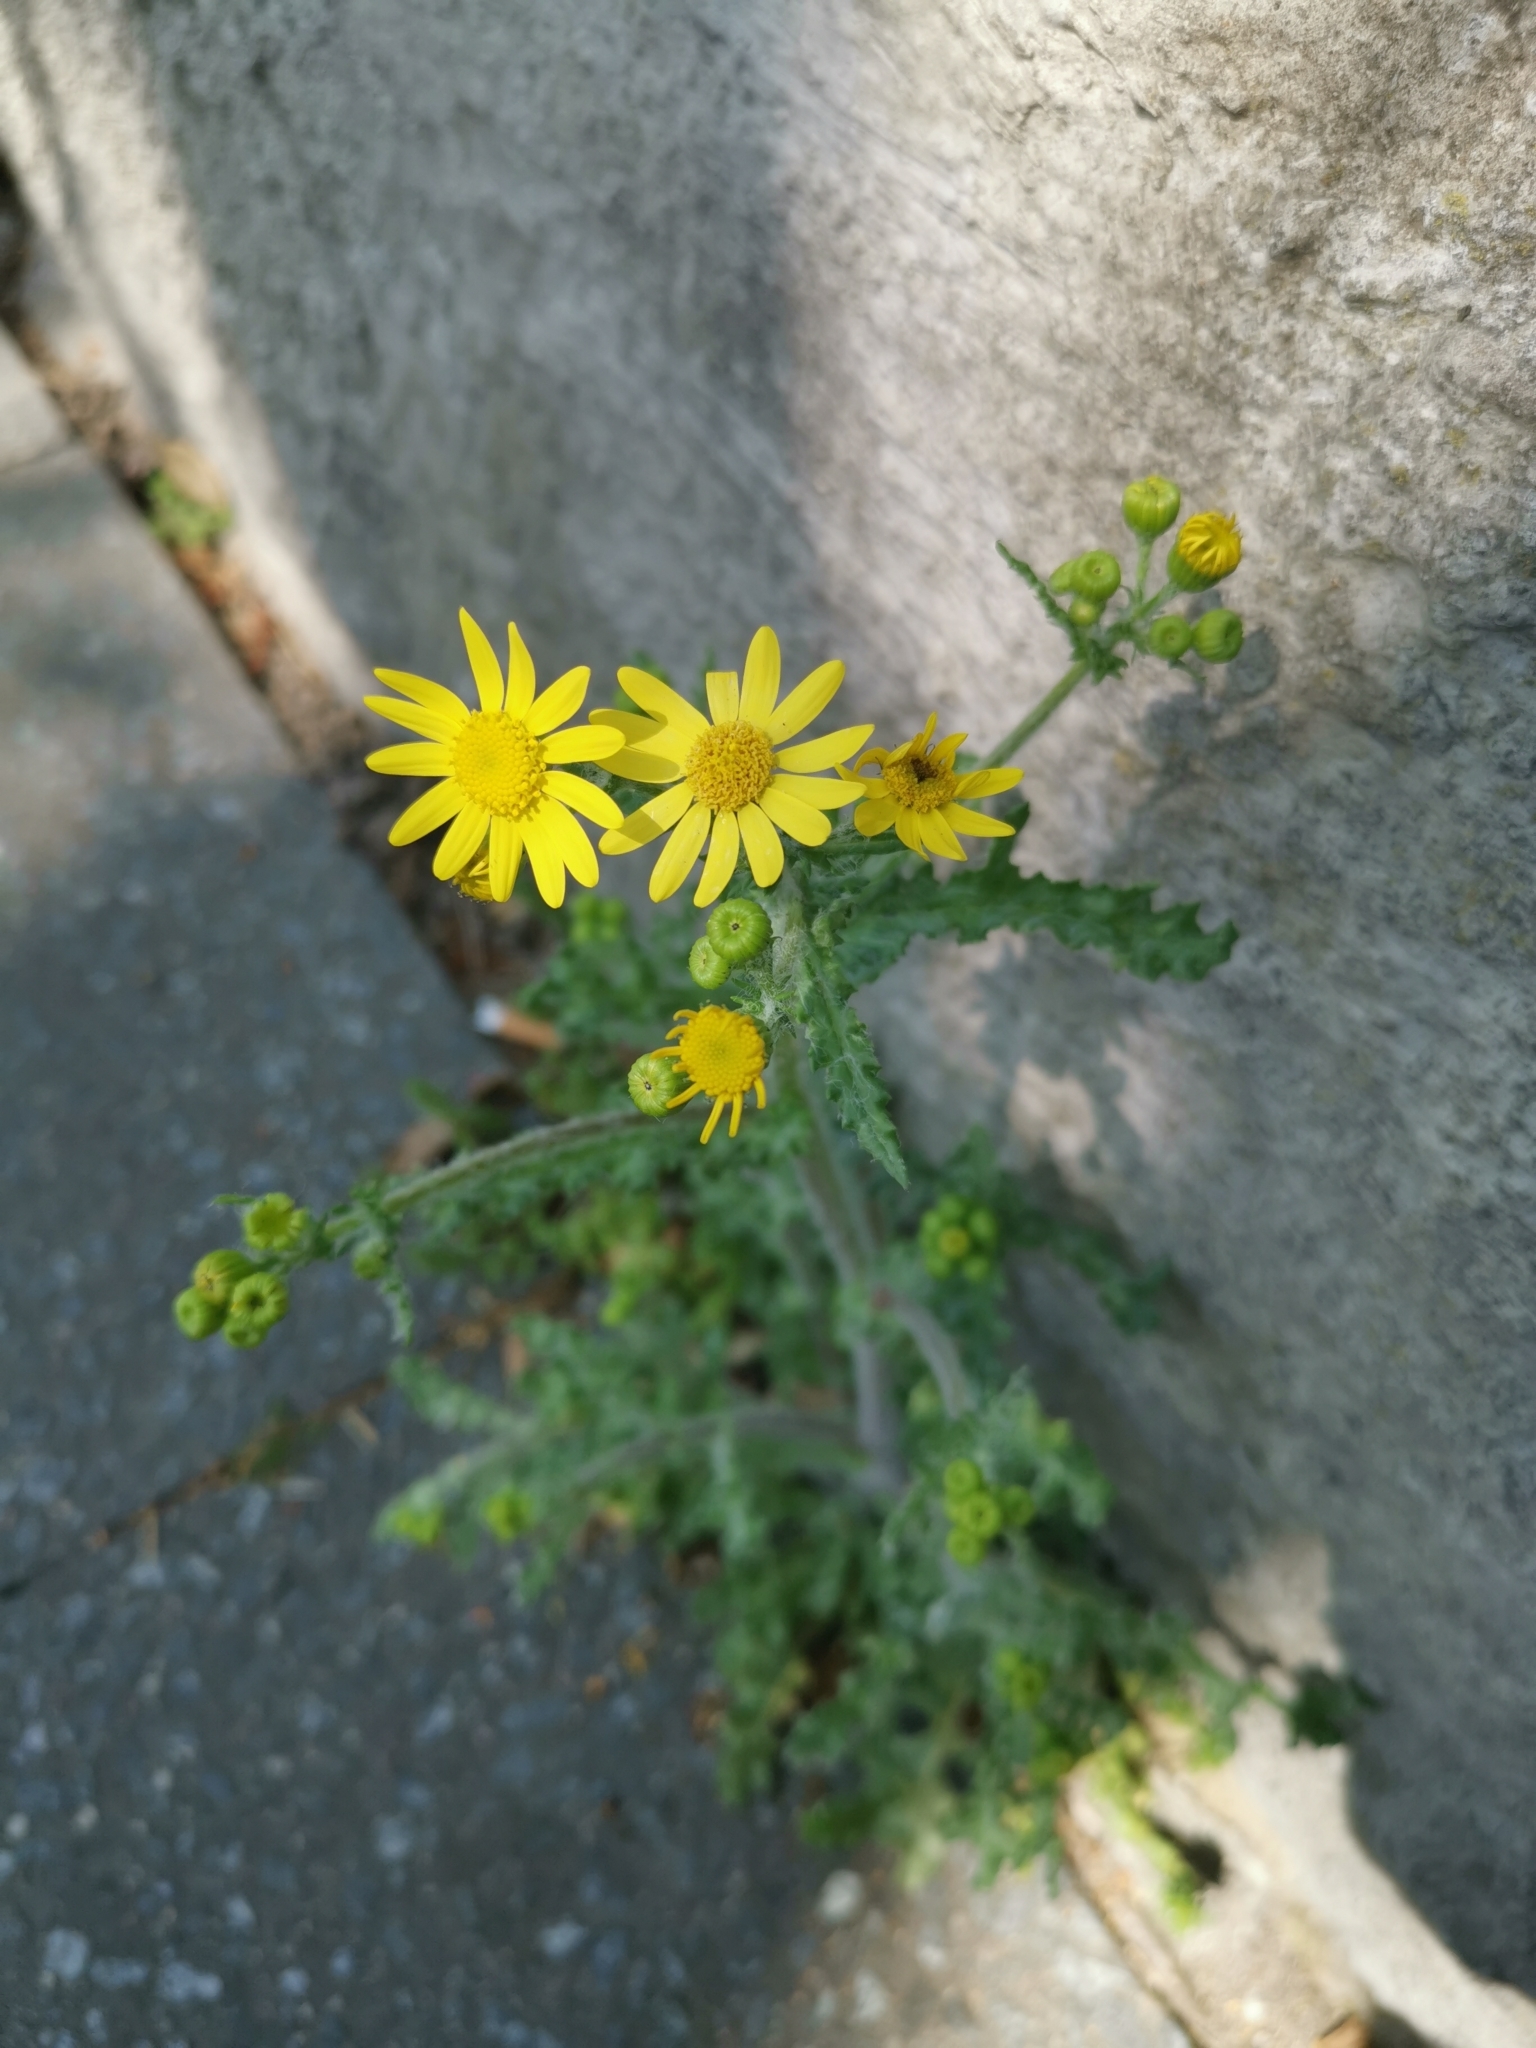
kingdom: Plantae
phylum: Tracheophyta
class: Magnoliopsida
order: Asterales
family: Asteraceae
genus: Senecio
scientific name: Senecio vernalis
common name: Eastern groundsel
